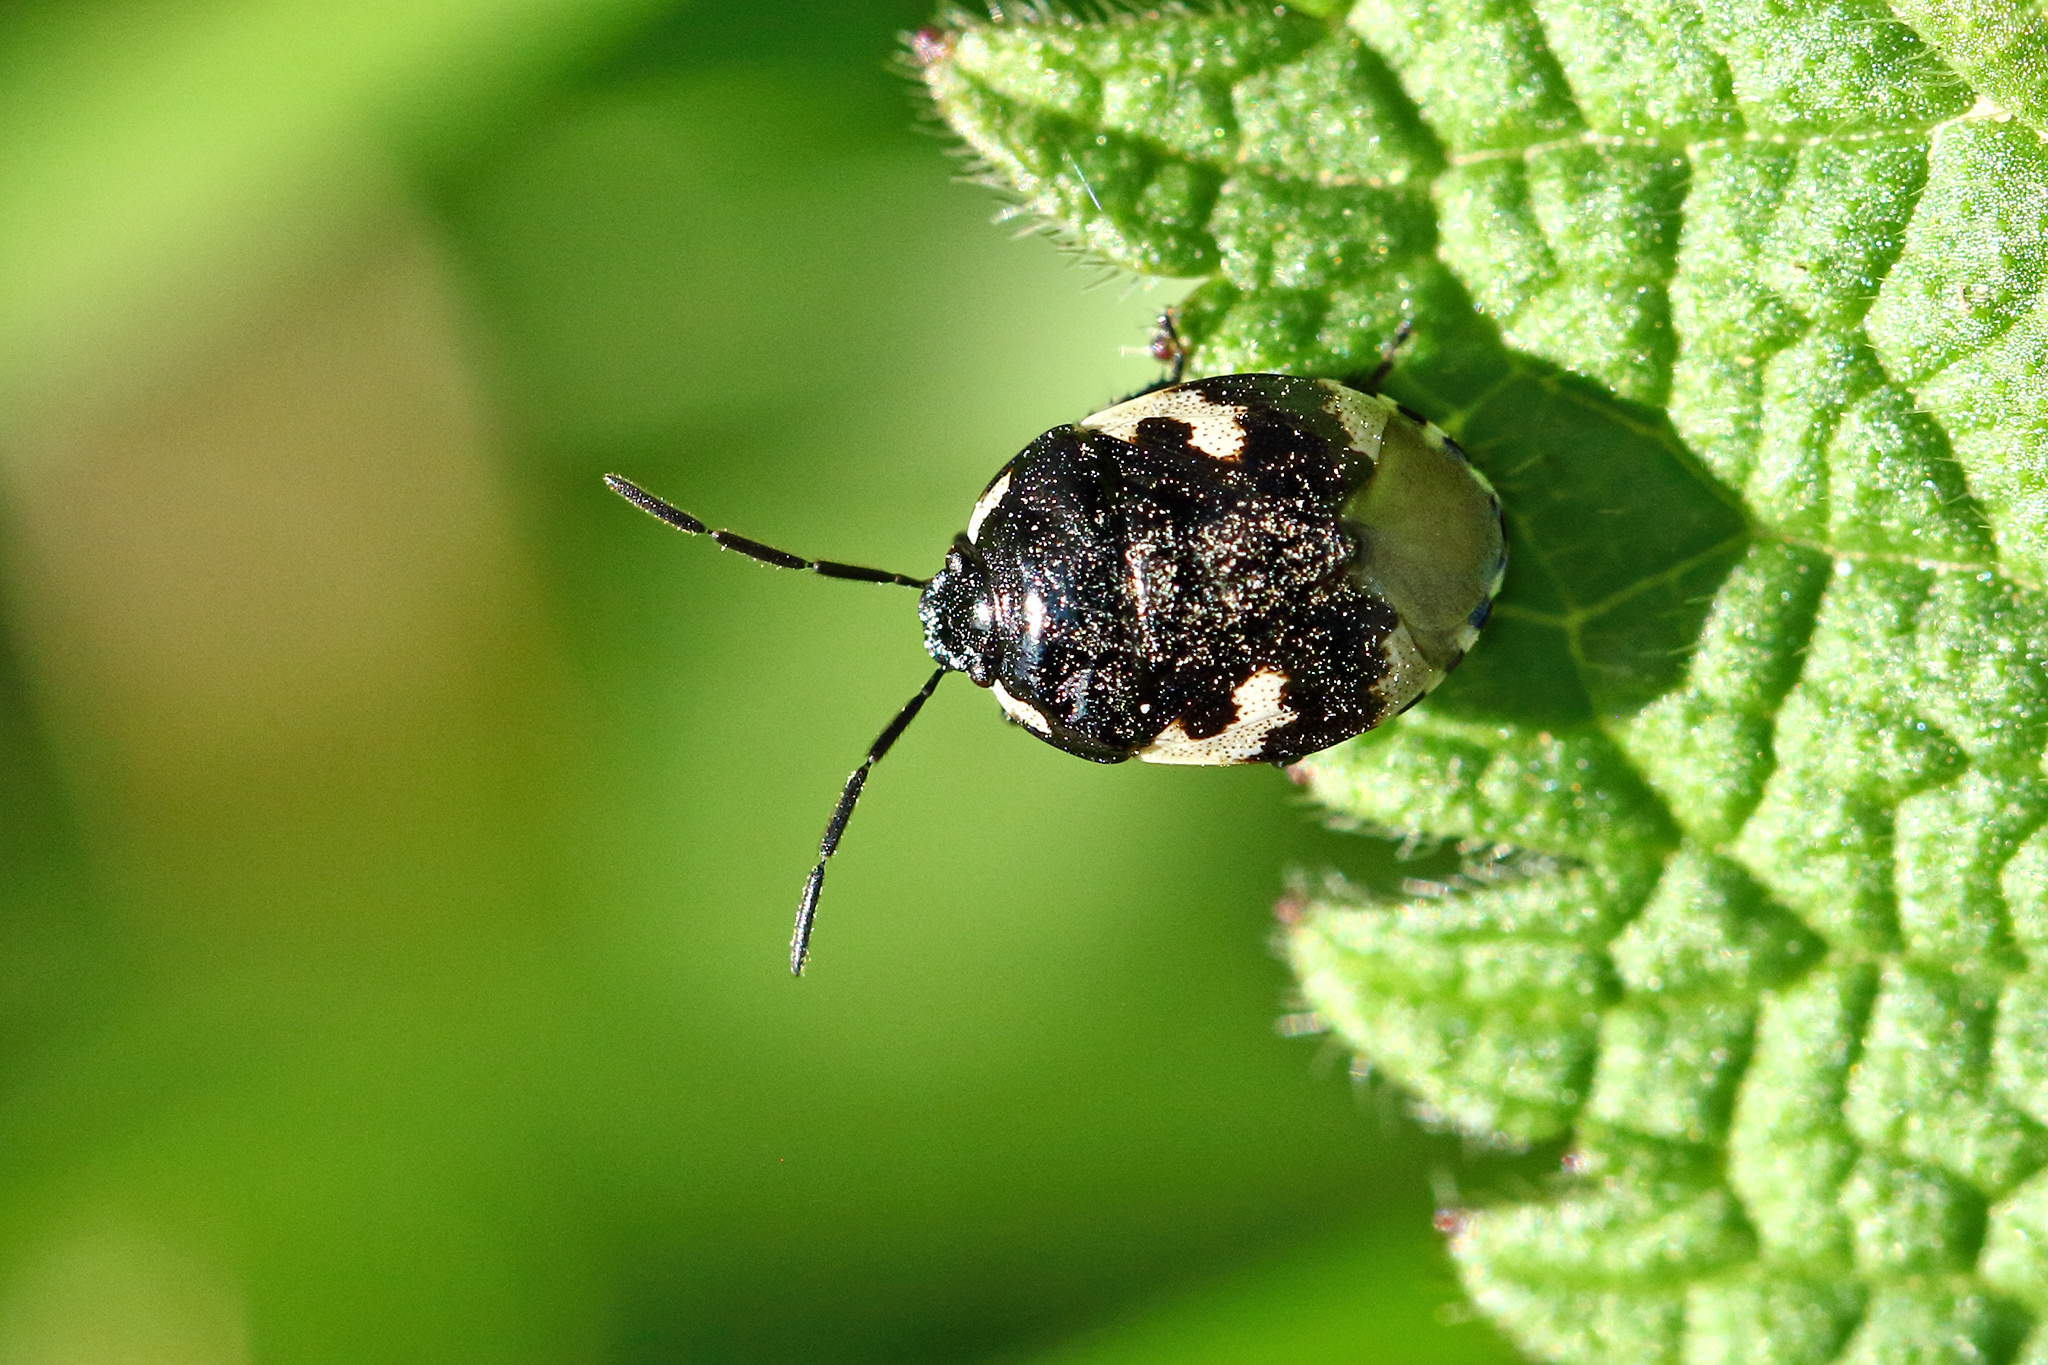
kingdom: Animalia
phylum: Arthropoda
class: Insecta
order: Hemiptera
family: Cydnidae
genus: Tritomegas
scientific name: Tritomegas bicolor
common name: Pied shieldbug
